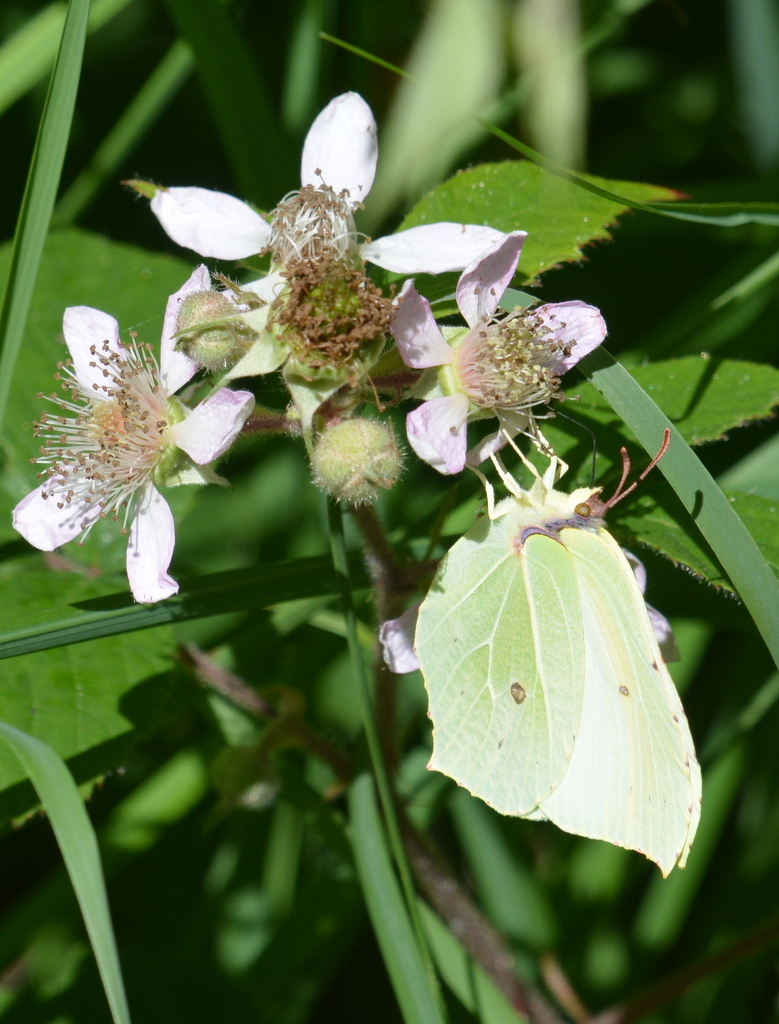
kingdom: Animalia
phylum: Arthropoda
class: Insecta
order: Lepidoptera
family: Pieridae
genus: Gonepteryx
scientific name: Gonepteryx rhamni
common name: Brimstone
